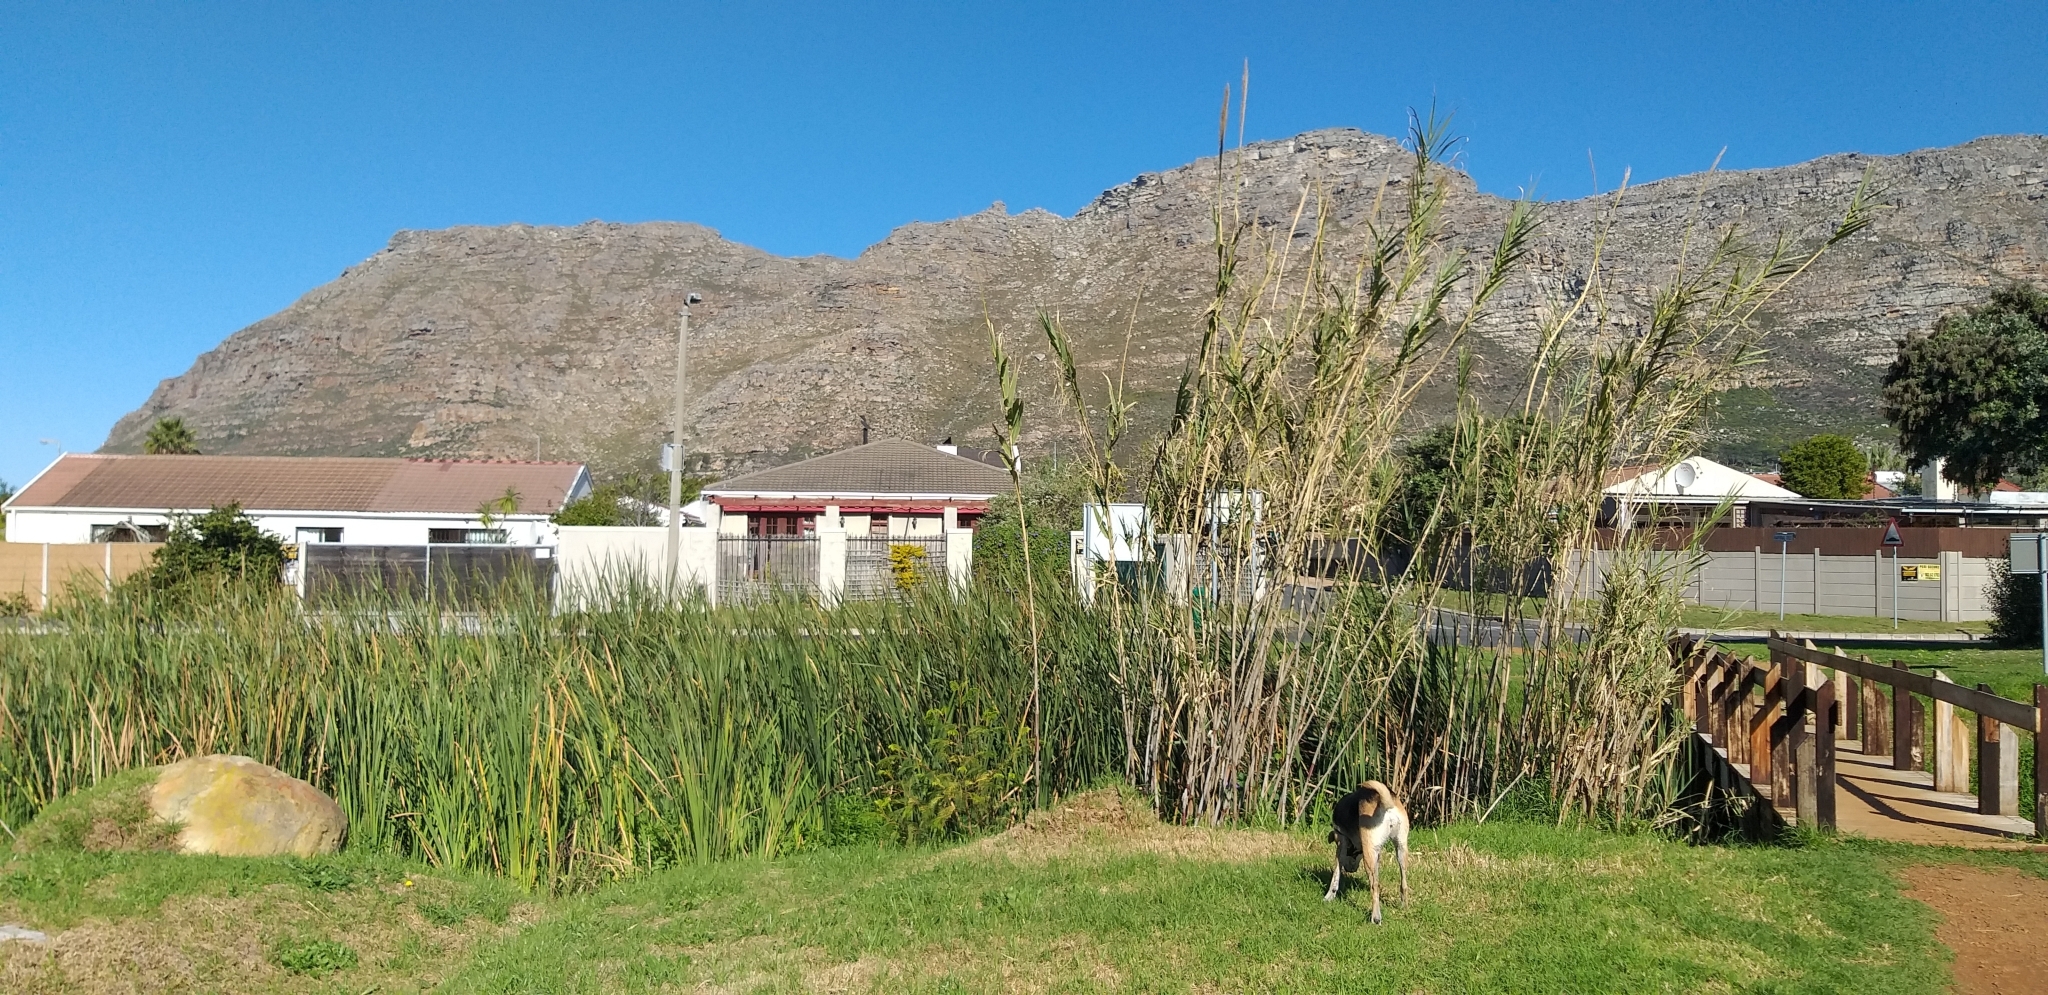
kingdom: Plantae
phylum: Tracheophyta
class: Liliopsida
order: Poales
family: Poaceae
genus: Arundo
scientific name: Arundo donax
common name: Giant reed
